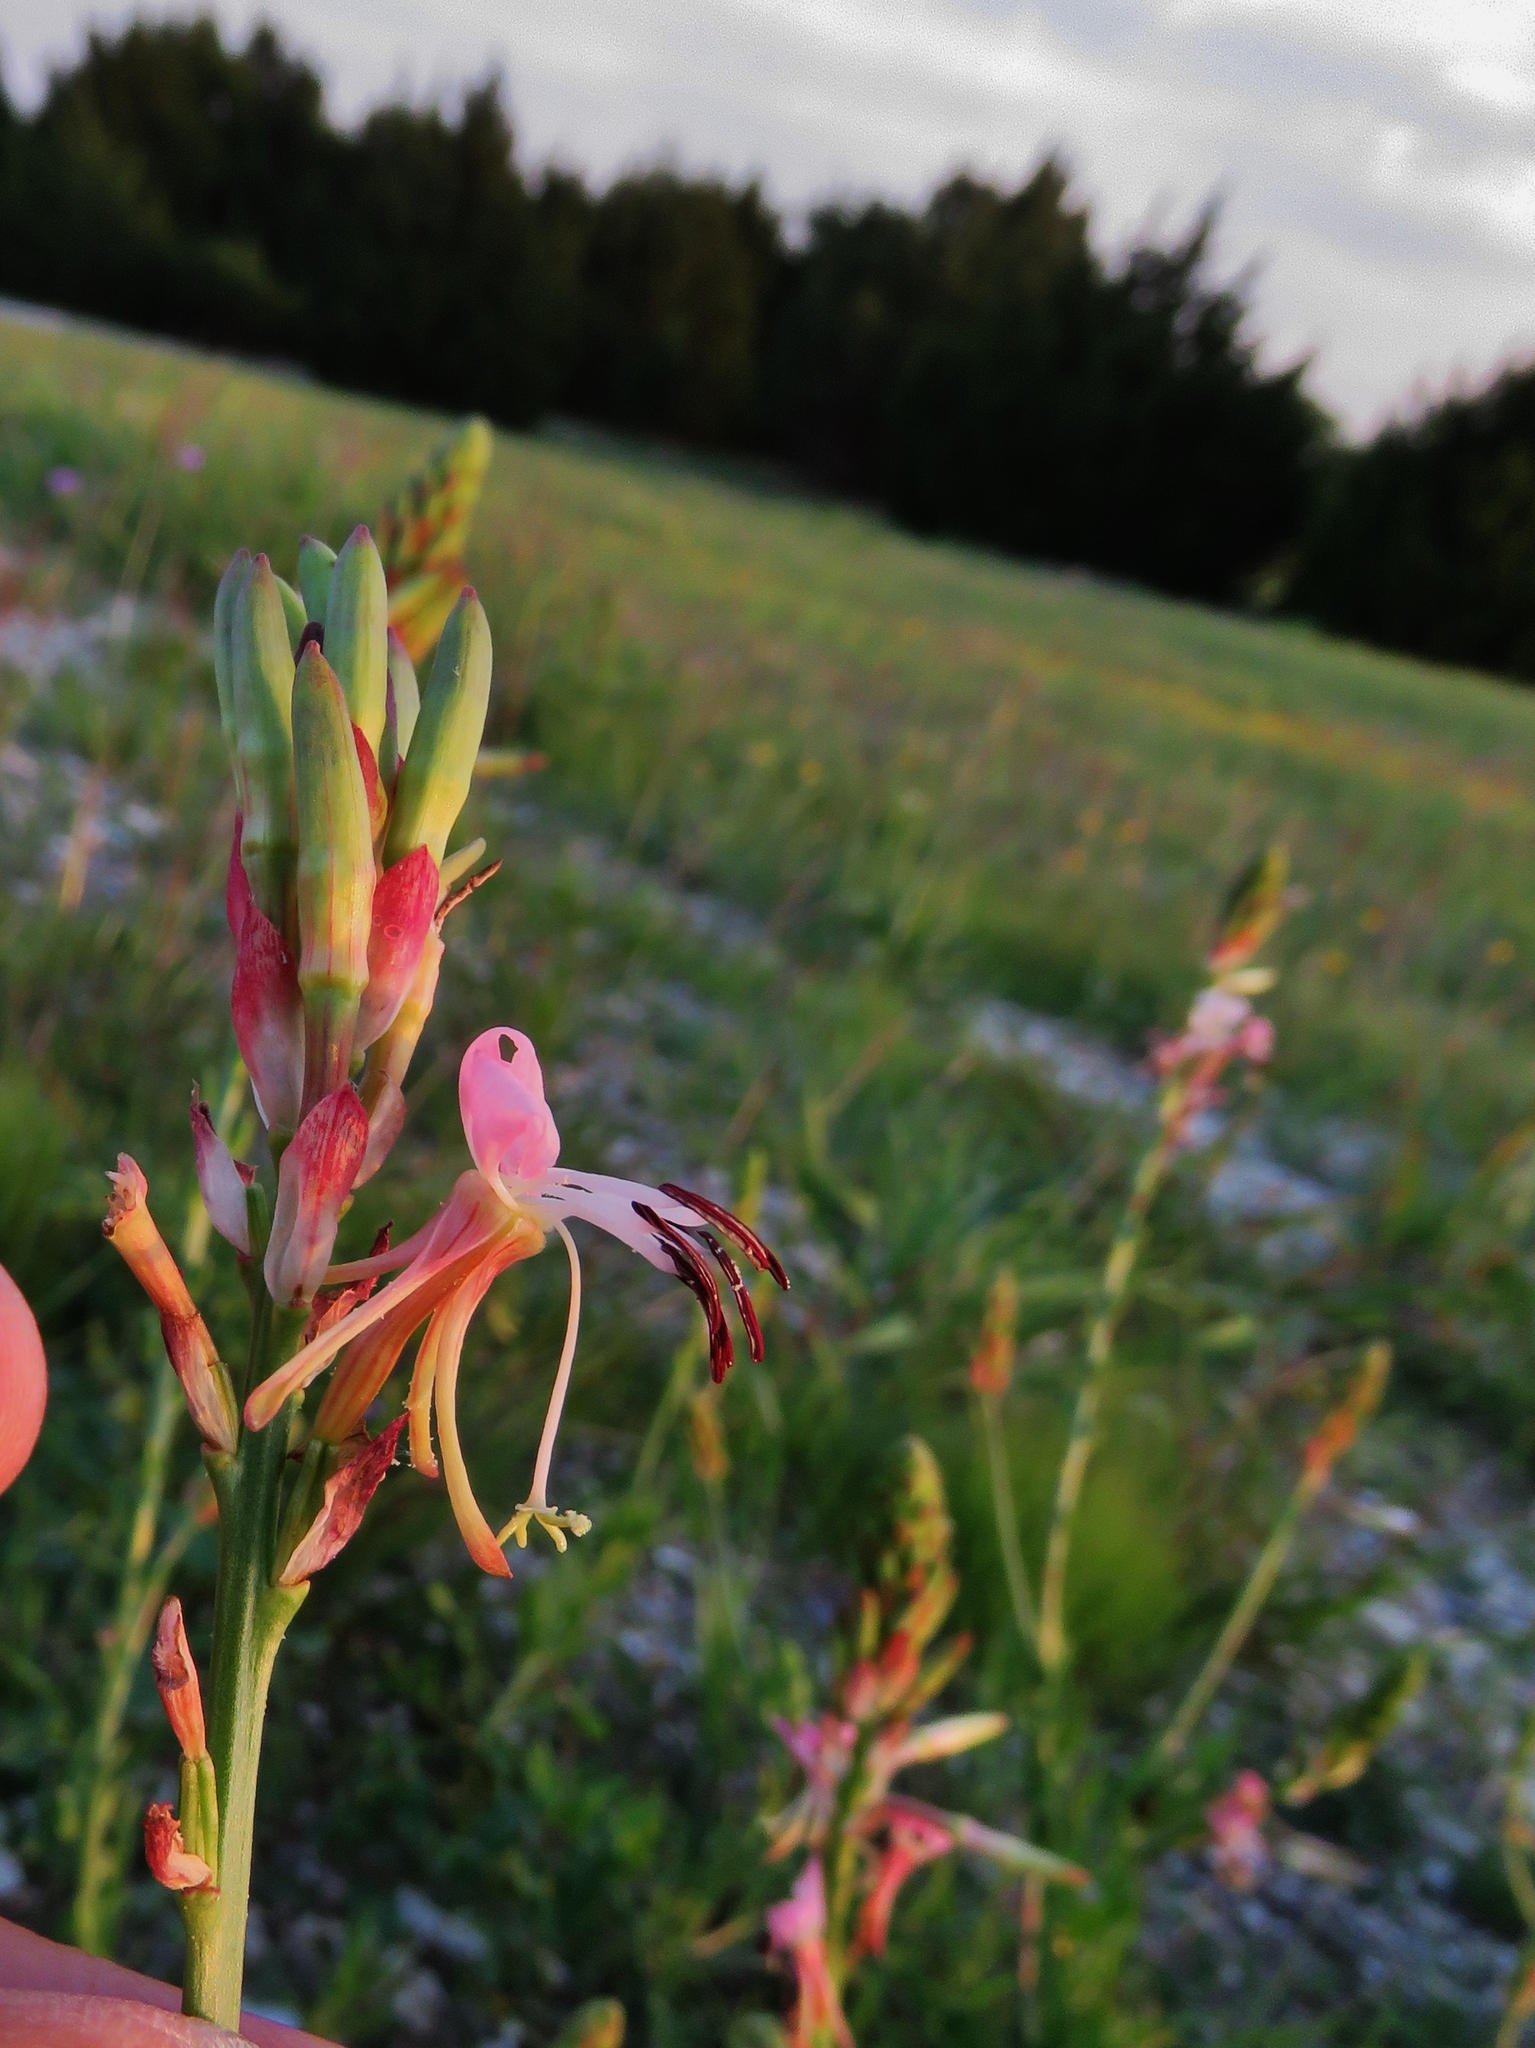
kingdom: Plantae
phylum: Tracheophyta
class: Magnoliopsida
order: Myrtales
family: Onagraceae
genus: Oenothera
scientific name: Oenothera suffulta
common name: Kisses
